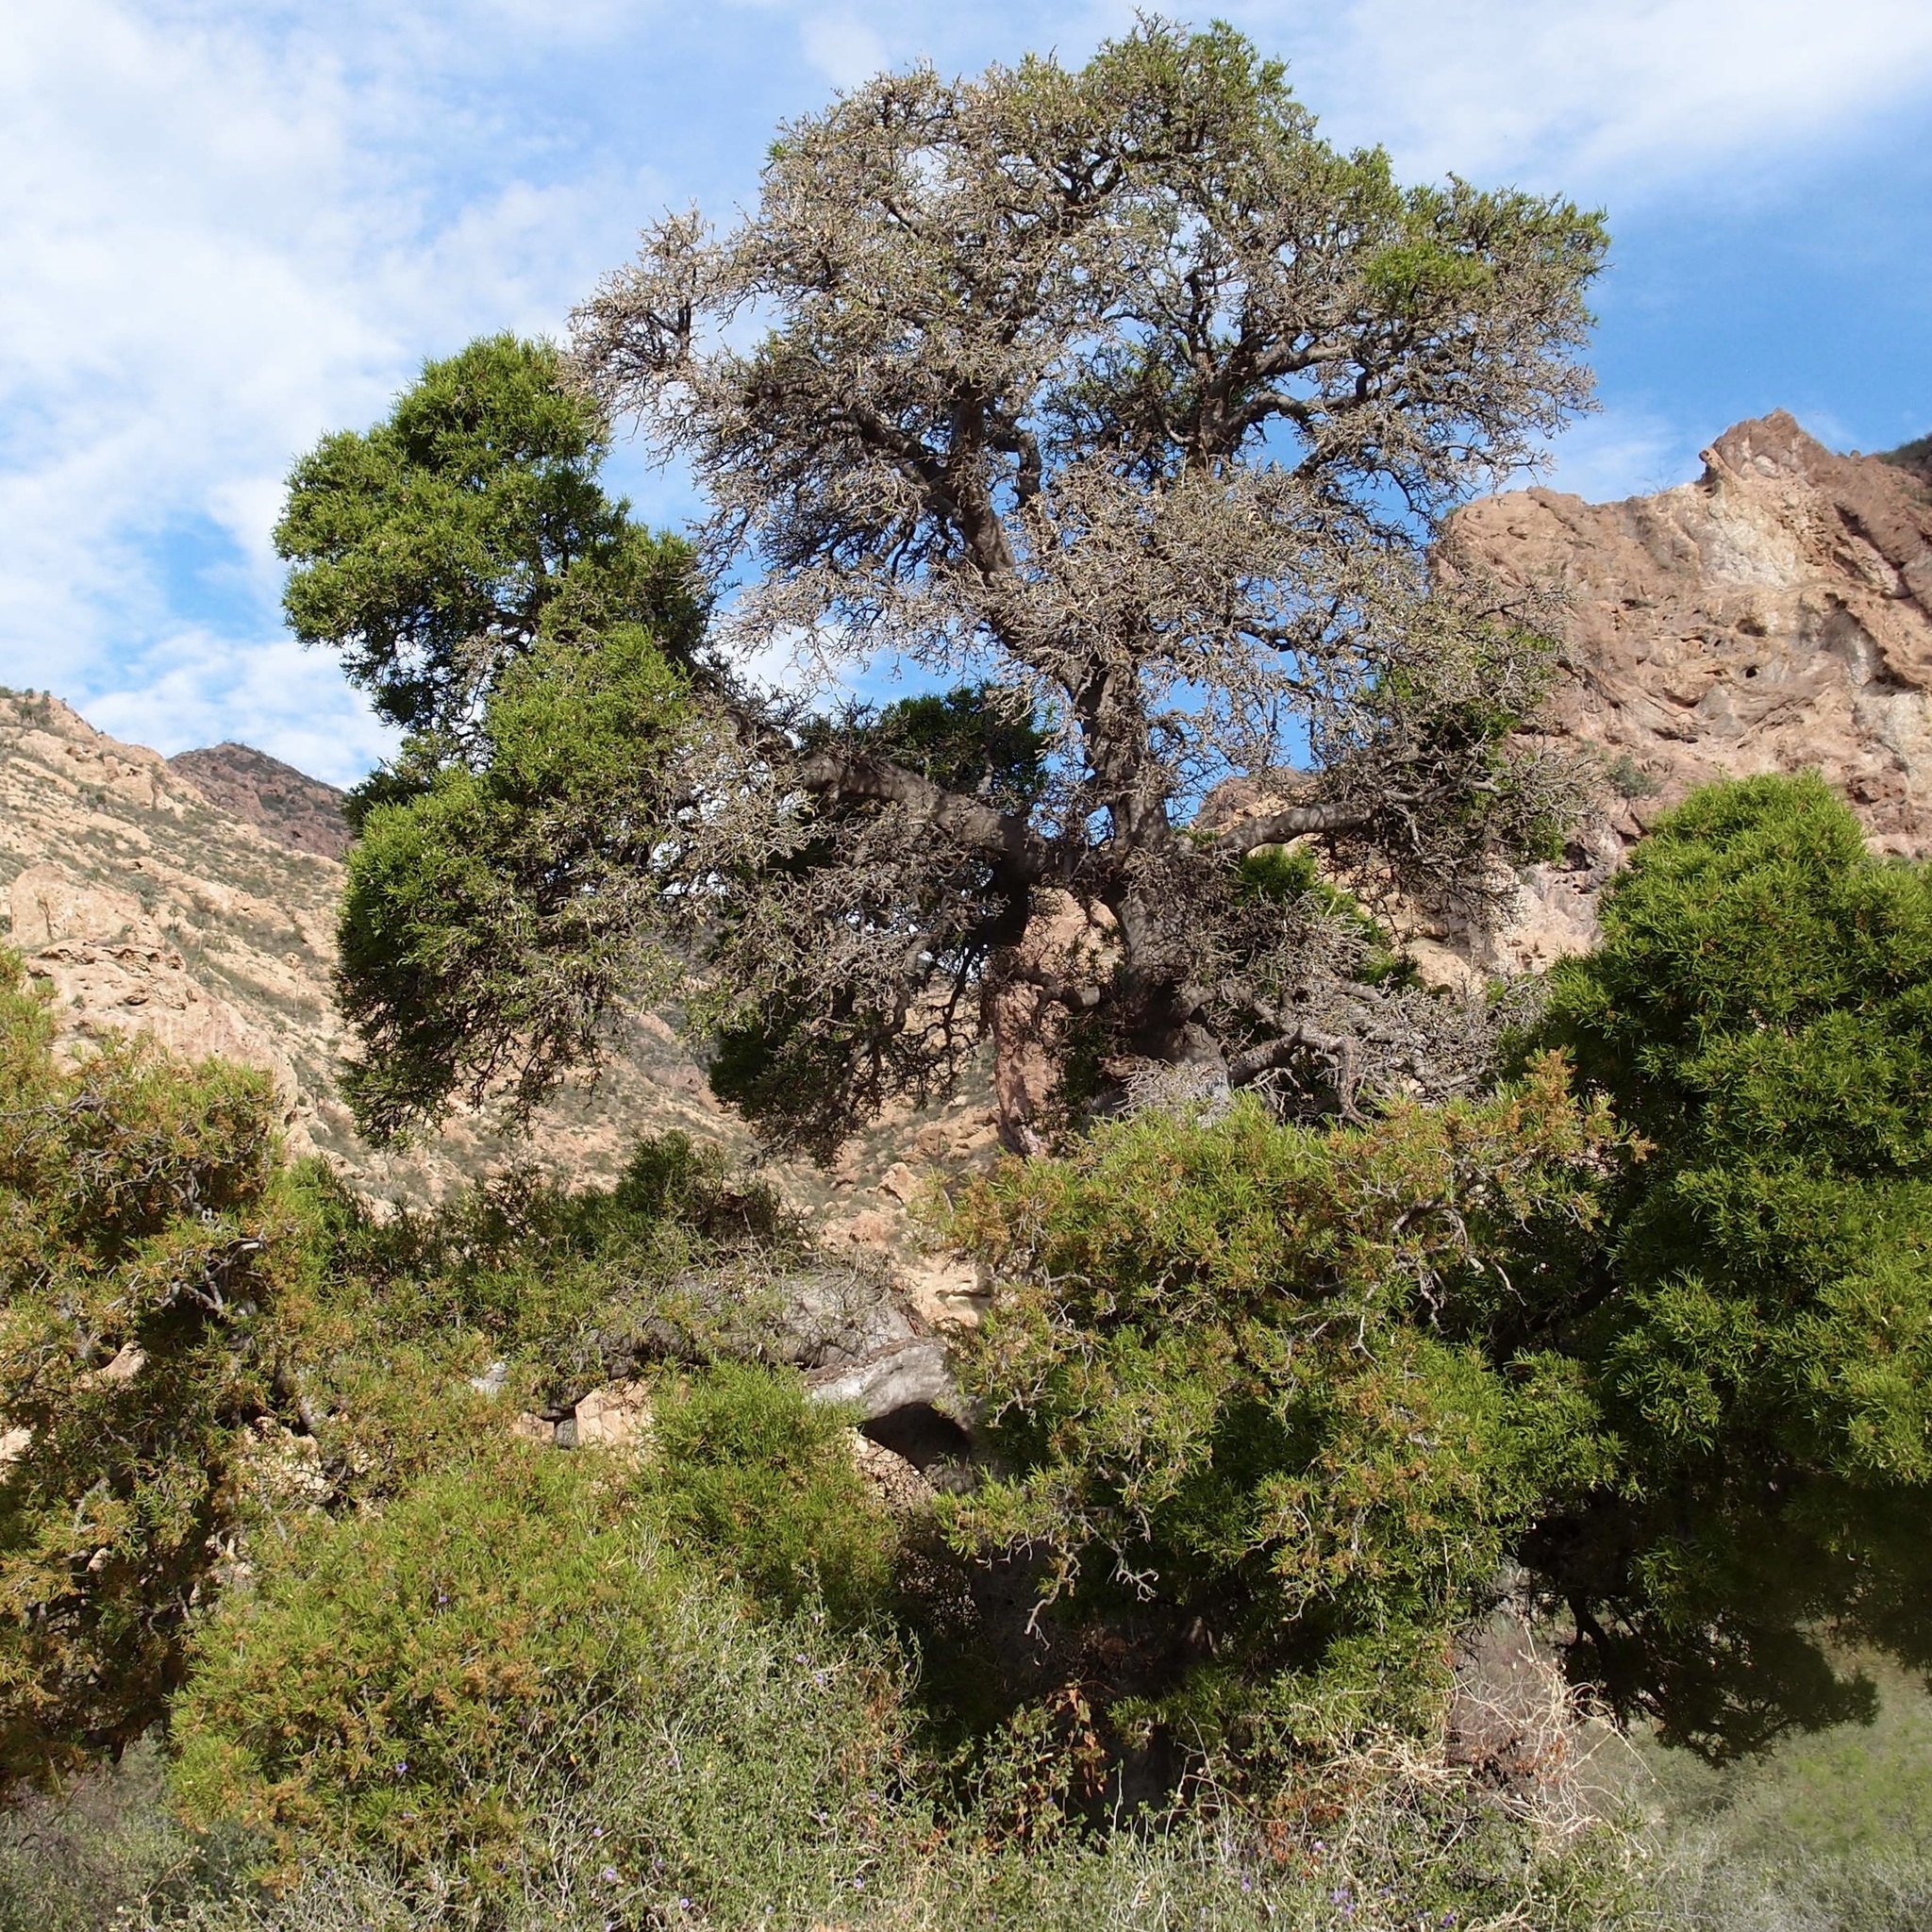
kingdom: Plantae
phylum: Tracheophyta
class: Magnoliopsida
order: Brassicales
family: Stixaceae
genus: Forchhammeria
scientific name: Forchhammeria watsonii
